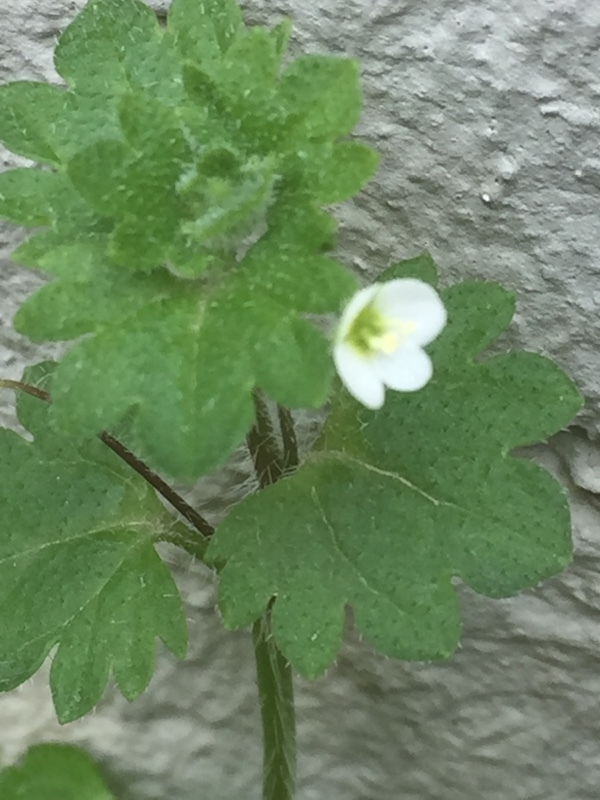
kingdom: Plantae
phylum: Tracheophyta
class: Magnoliopsida
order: Lamiales
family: Plantaginaceae
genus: Veronica
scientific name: Veronica panormitana
